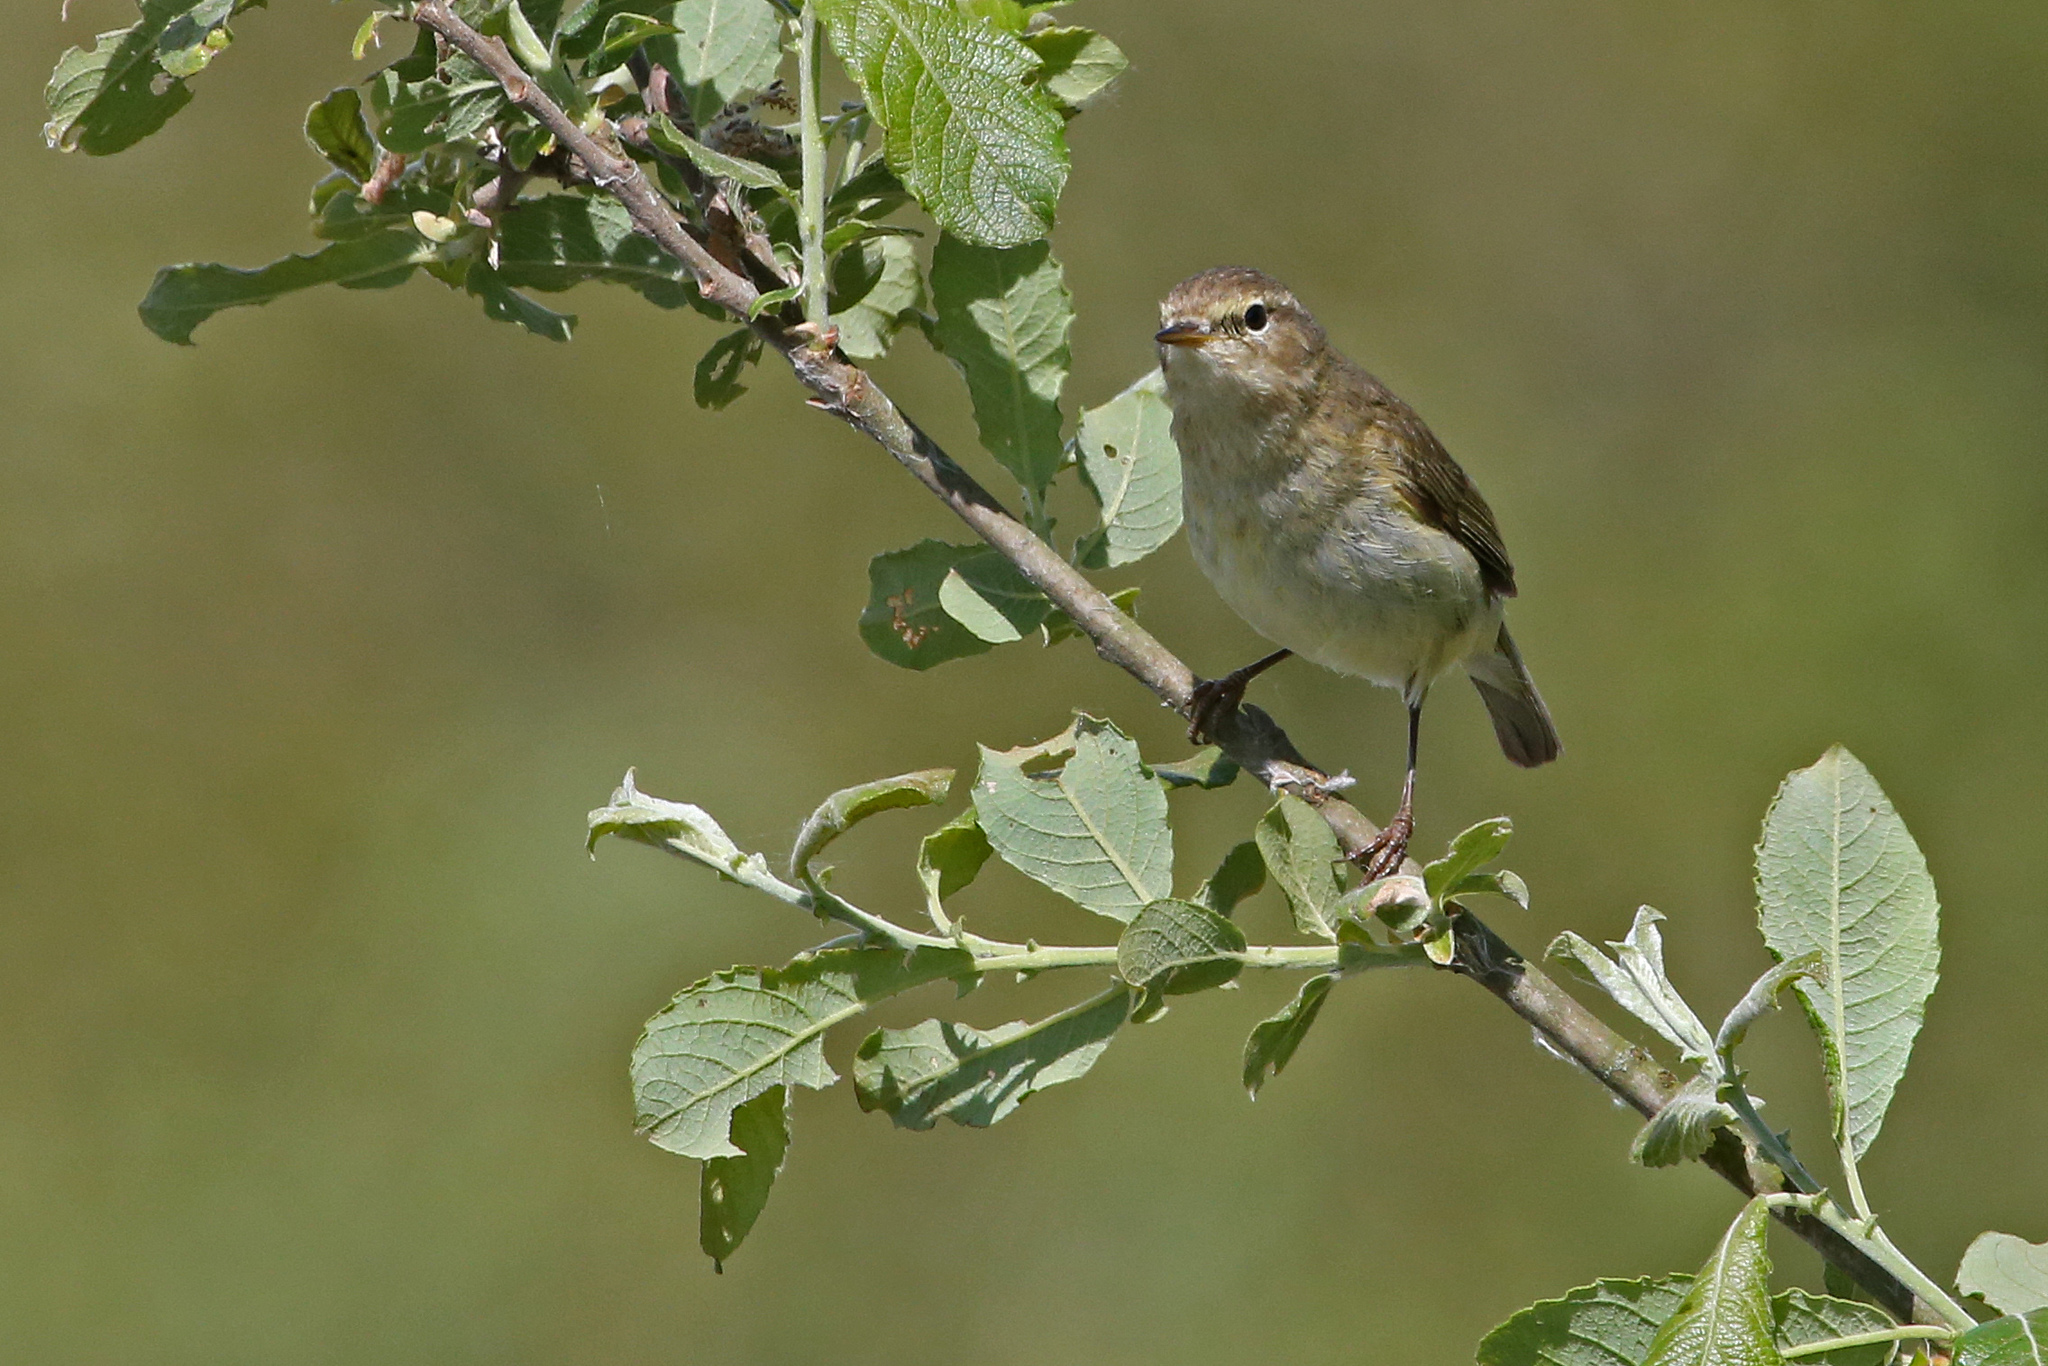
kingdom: Animalia
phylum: Chordata
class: Aves
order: Passeriformes
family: Phylloscopidae
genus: Phylloscopus
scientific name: Phylloscopus collybita
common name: Common chiffchaff
